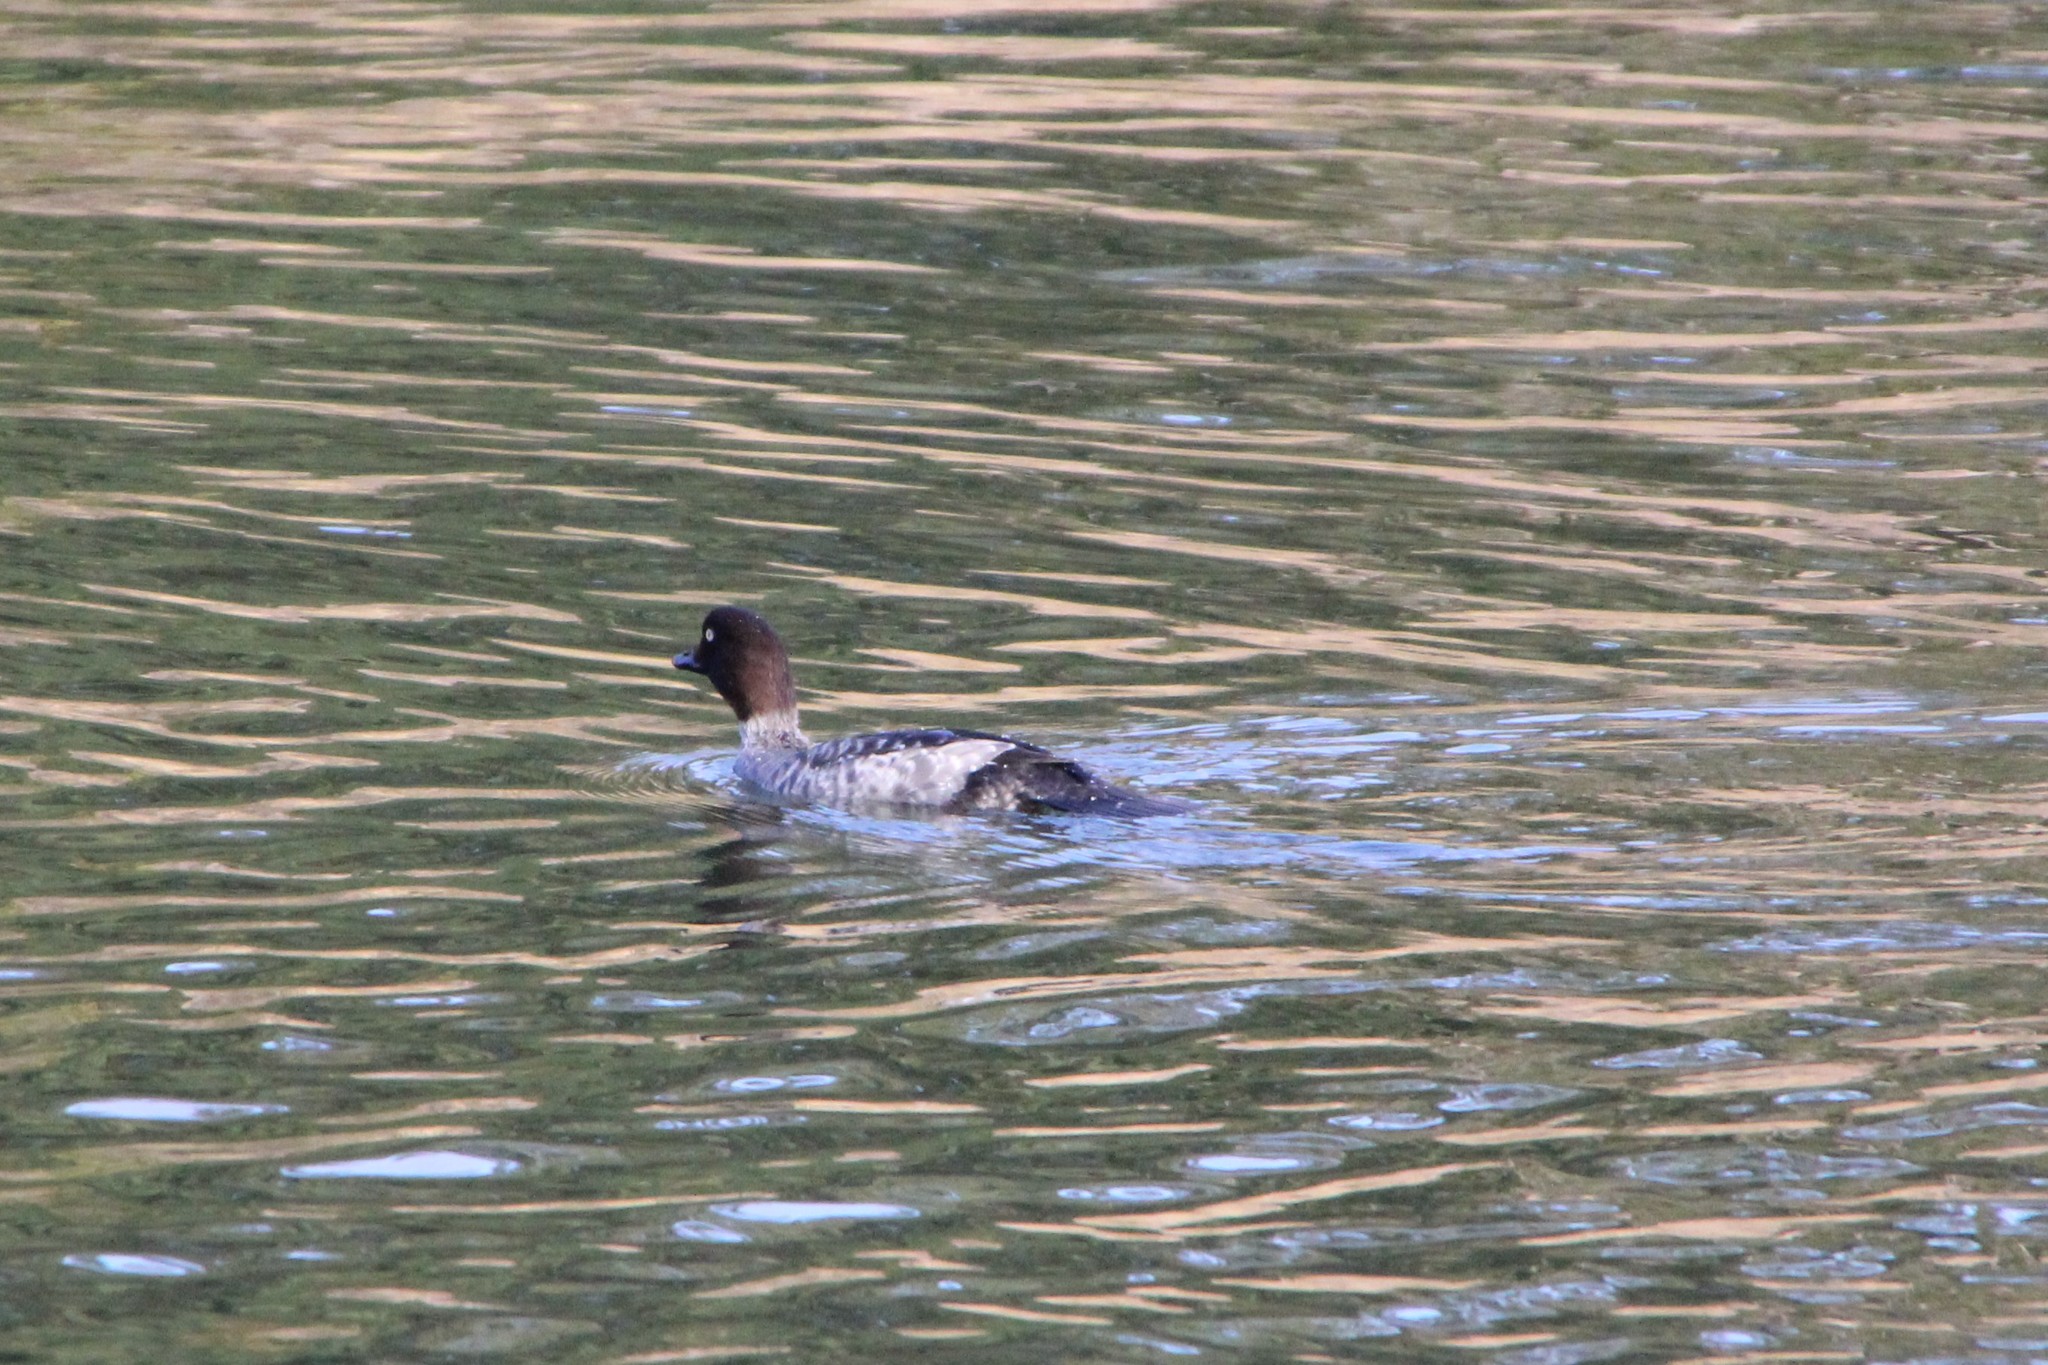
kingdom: Animalia
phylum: Chordata
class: Aves
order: Anseriformes
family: Anatidae
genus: Bucephala
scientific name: Bucephala clangula
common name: Common goldeneye
